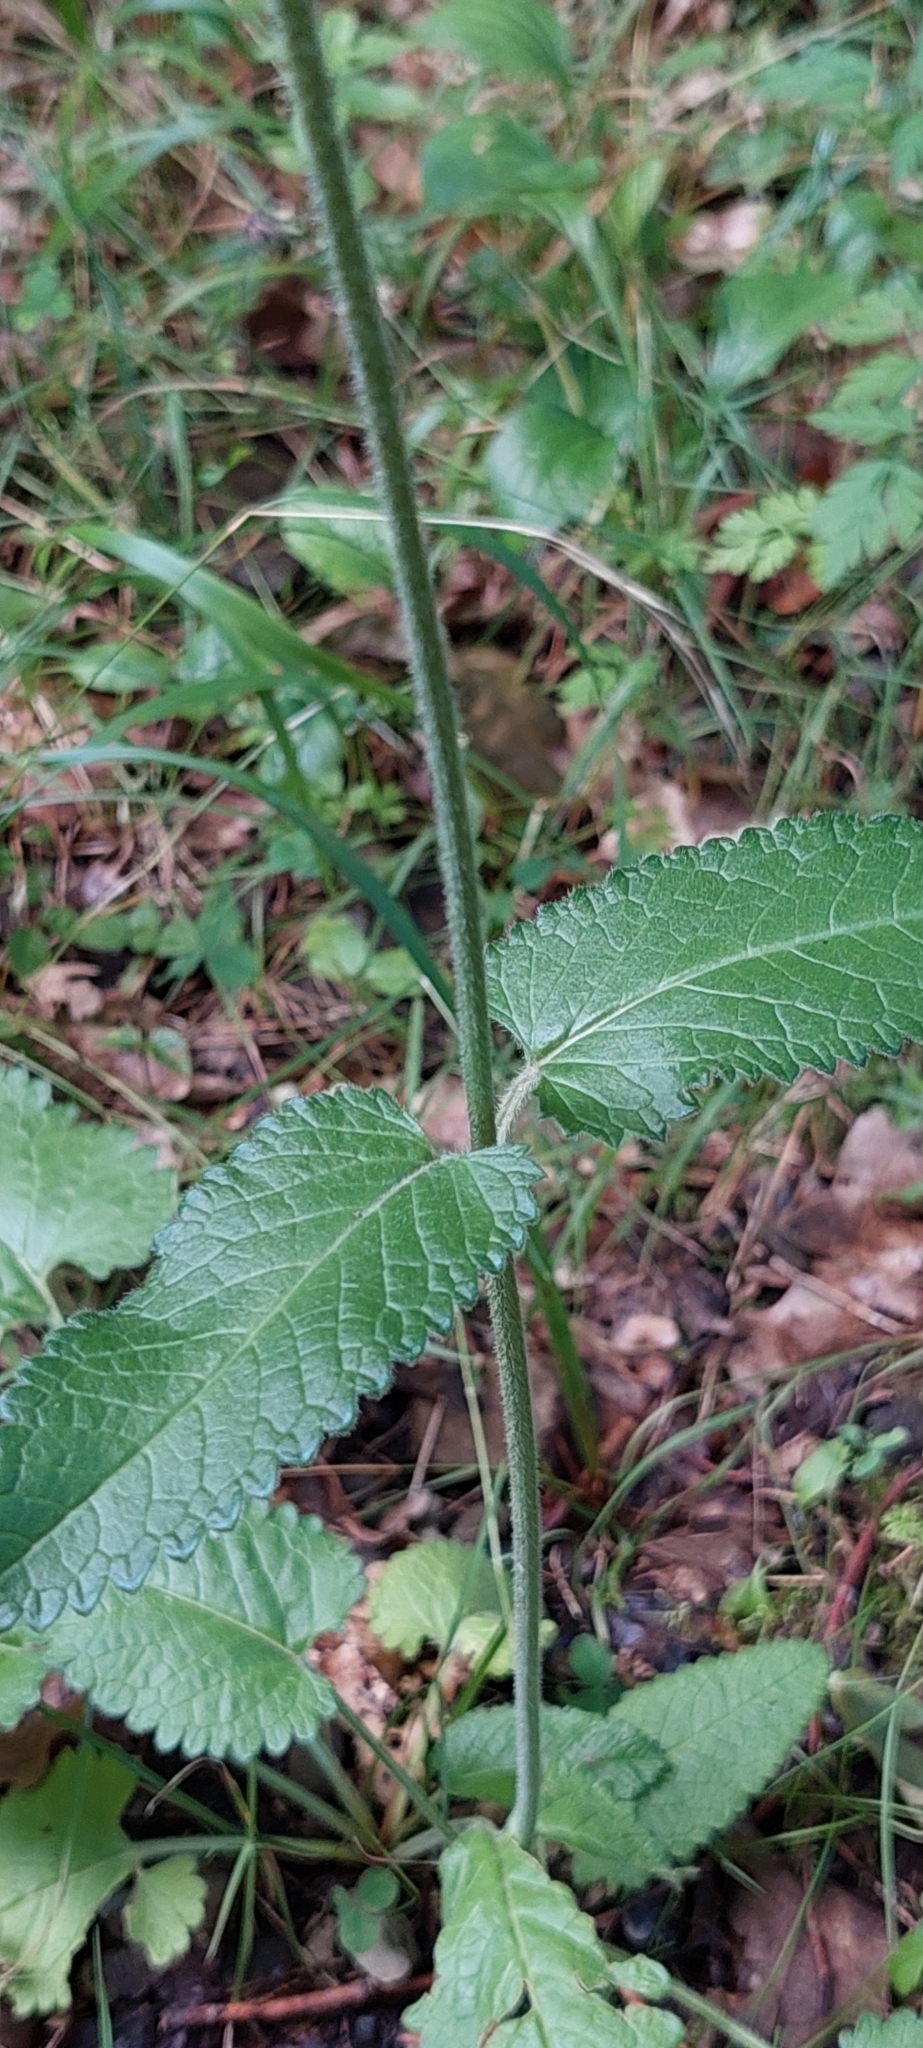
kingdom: Plantae
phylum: Tracheophyta
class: Magnoliopsida
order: Lamiales
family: Lamiaceae
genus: Betonica
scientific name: Betonica officinalis
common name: Bishop's-wort
